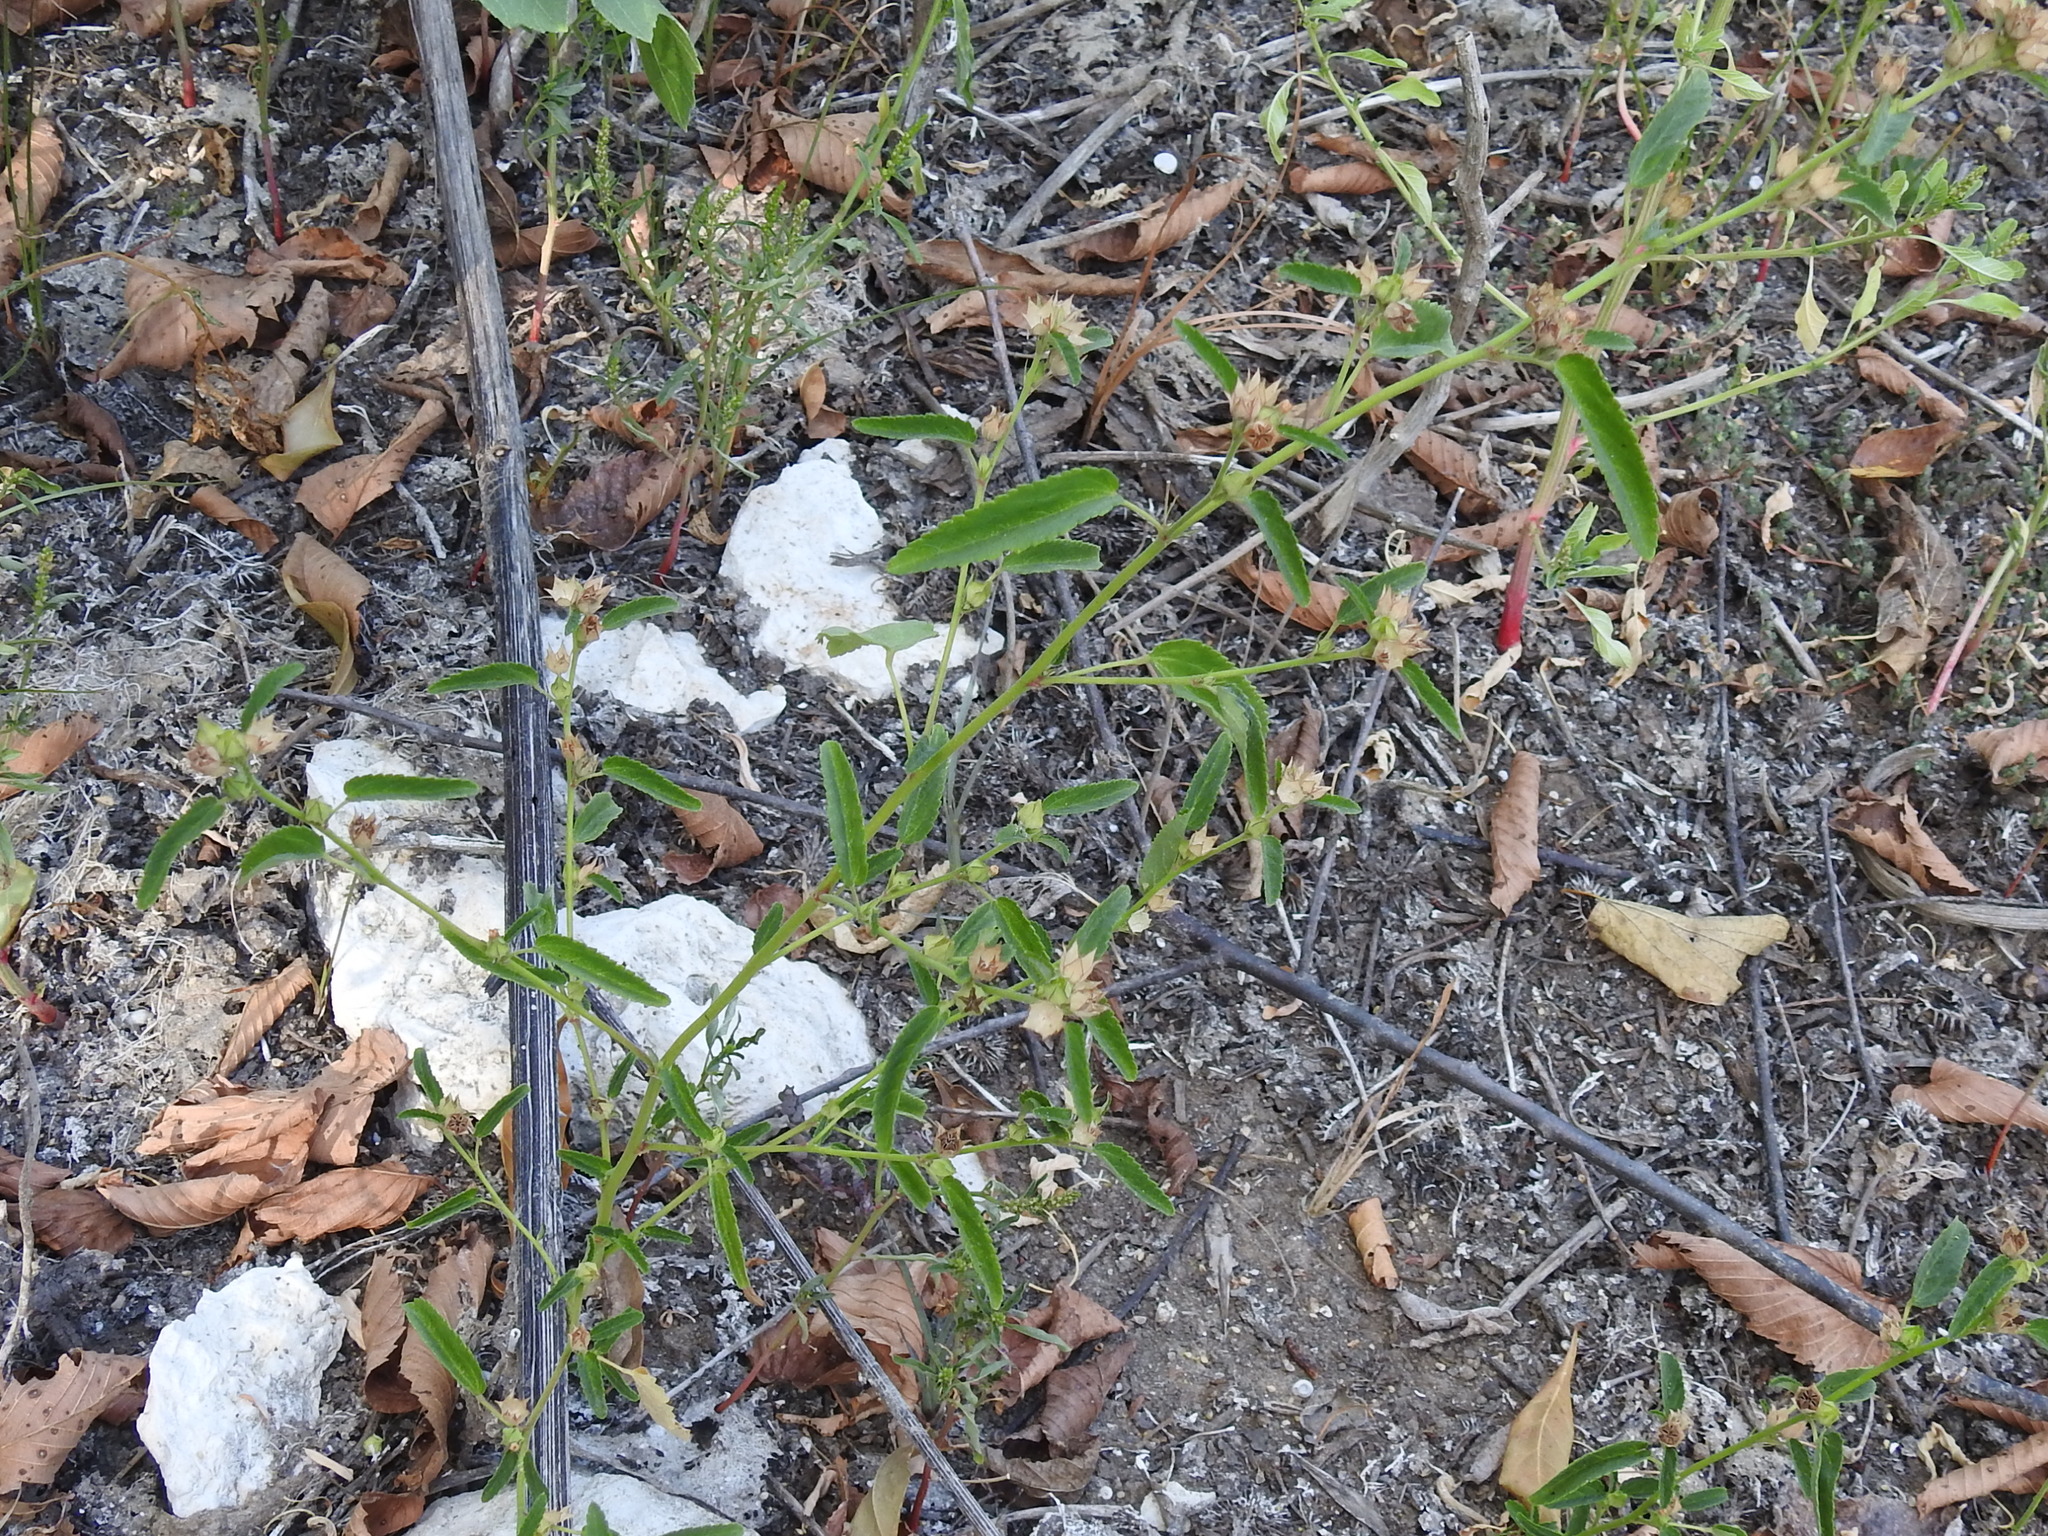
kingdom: Plantae
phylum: Tracheophyta
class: Magnoliopsida
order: Malvales
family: Malvaceae
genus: Sida
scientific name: Sida spinosa
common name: Prickly fanpetals
